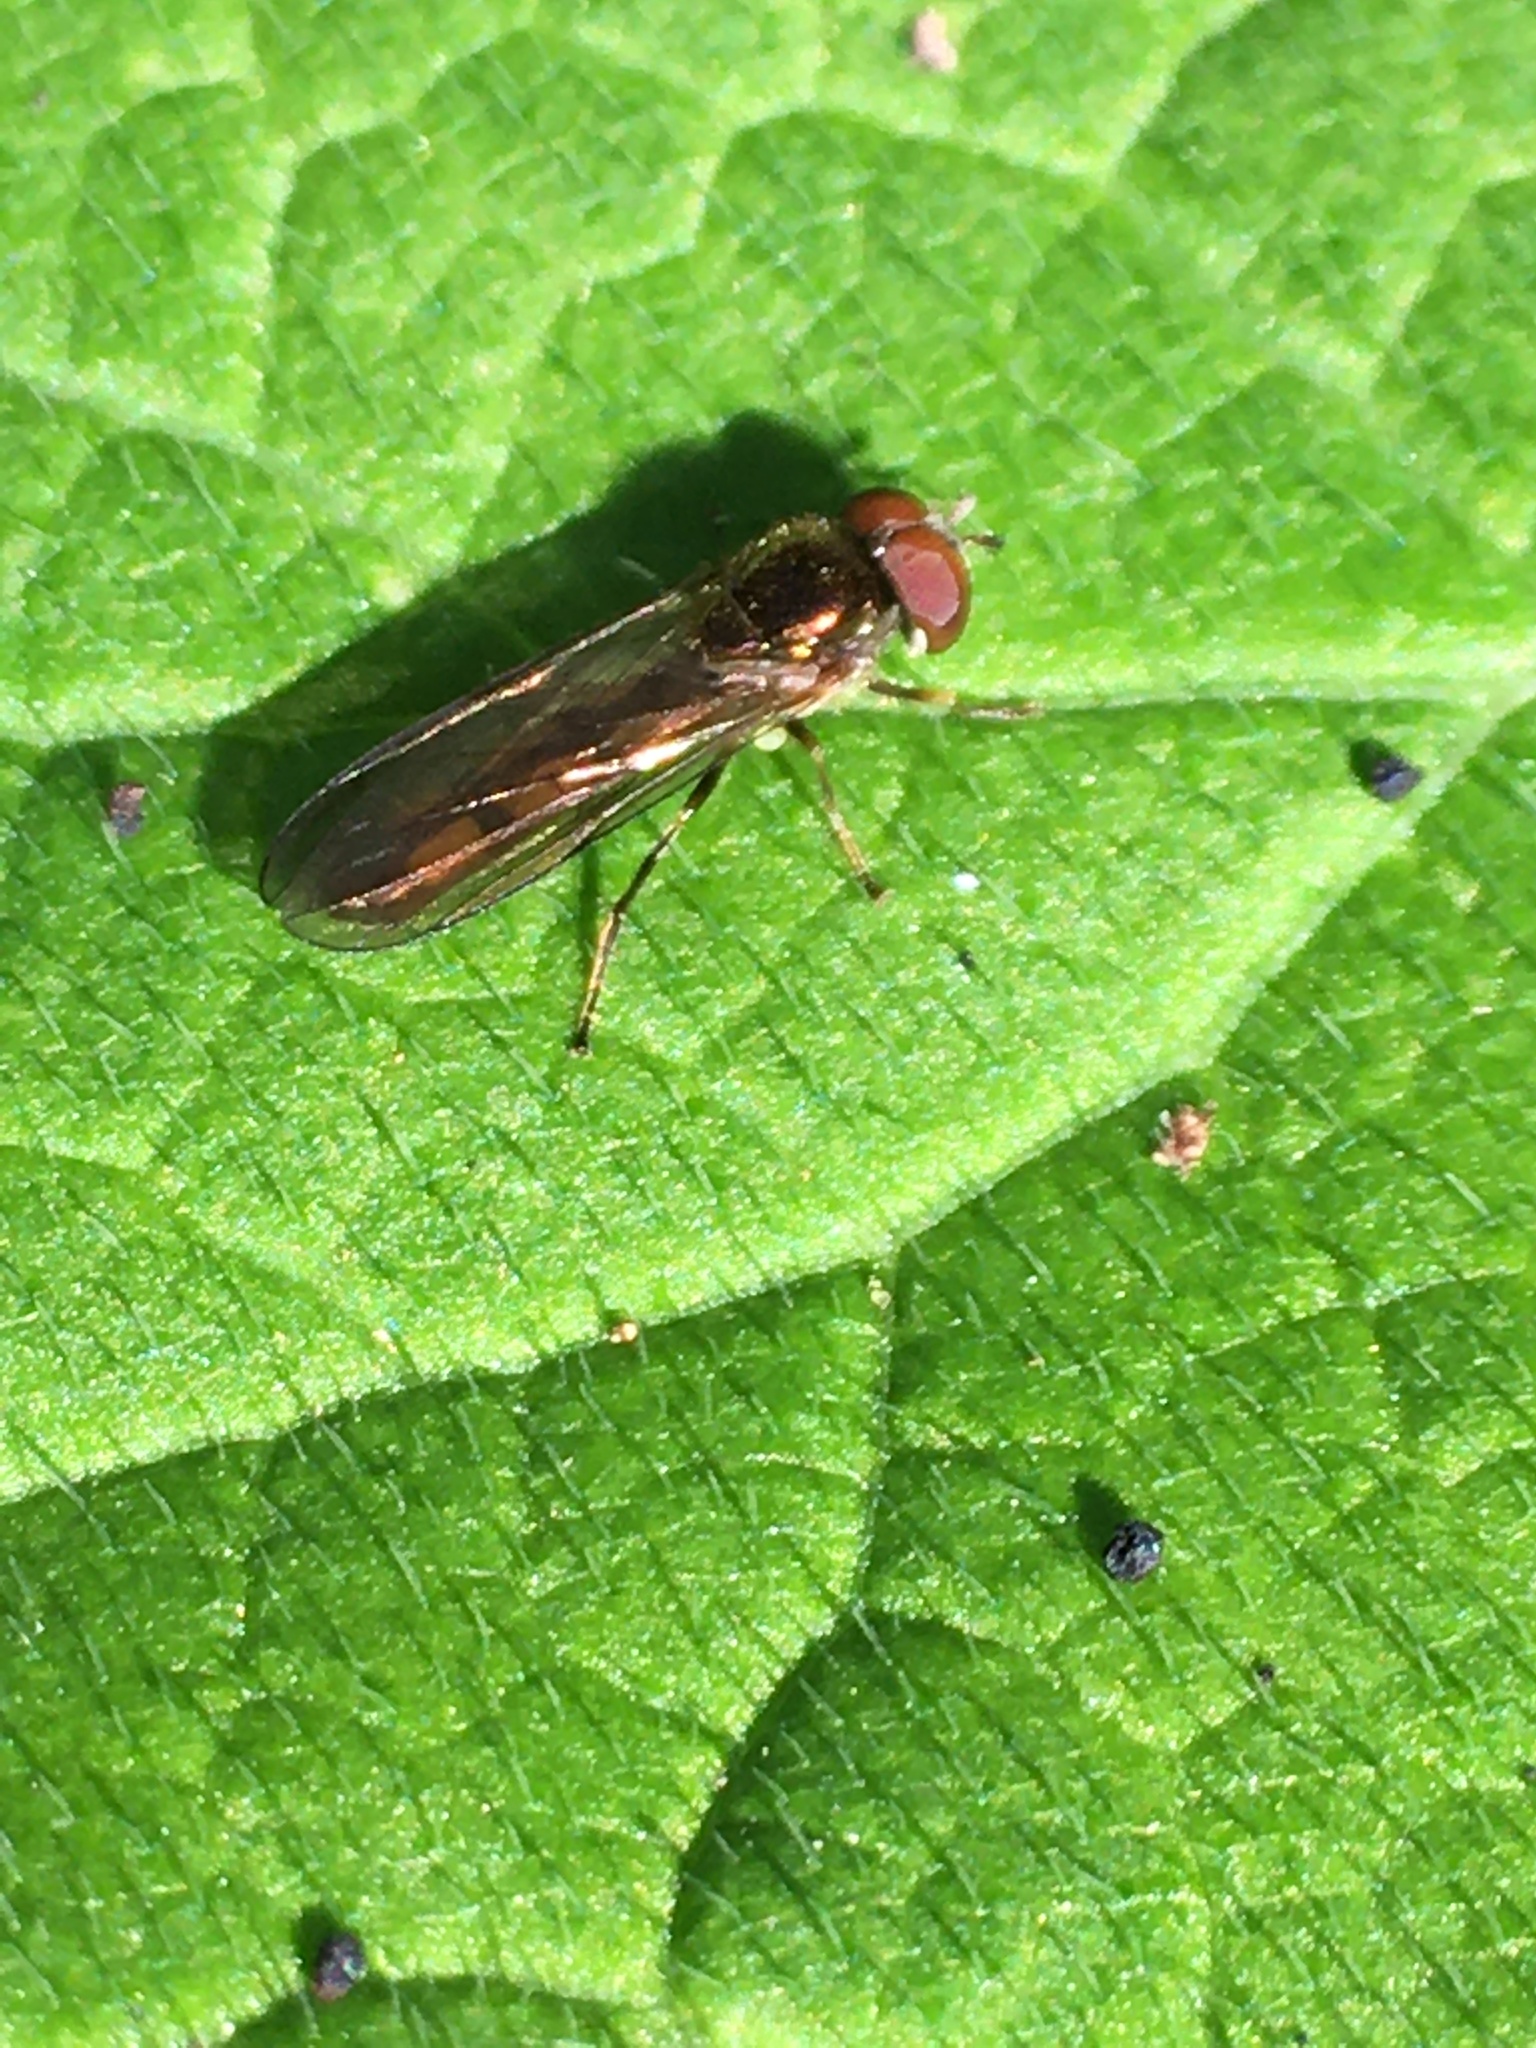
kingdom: Animalia
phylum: Arthropoda
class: Insecta
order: Diptera
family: Syrphidae
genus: Melanostoma
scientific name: Melanostoma scalare
